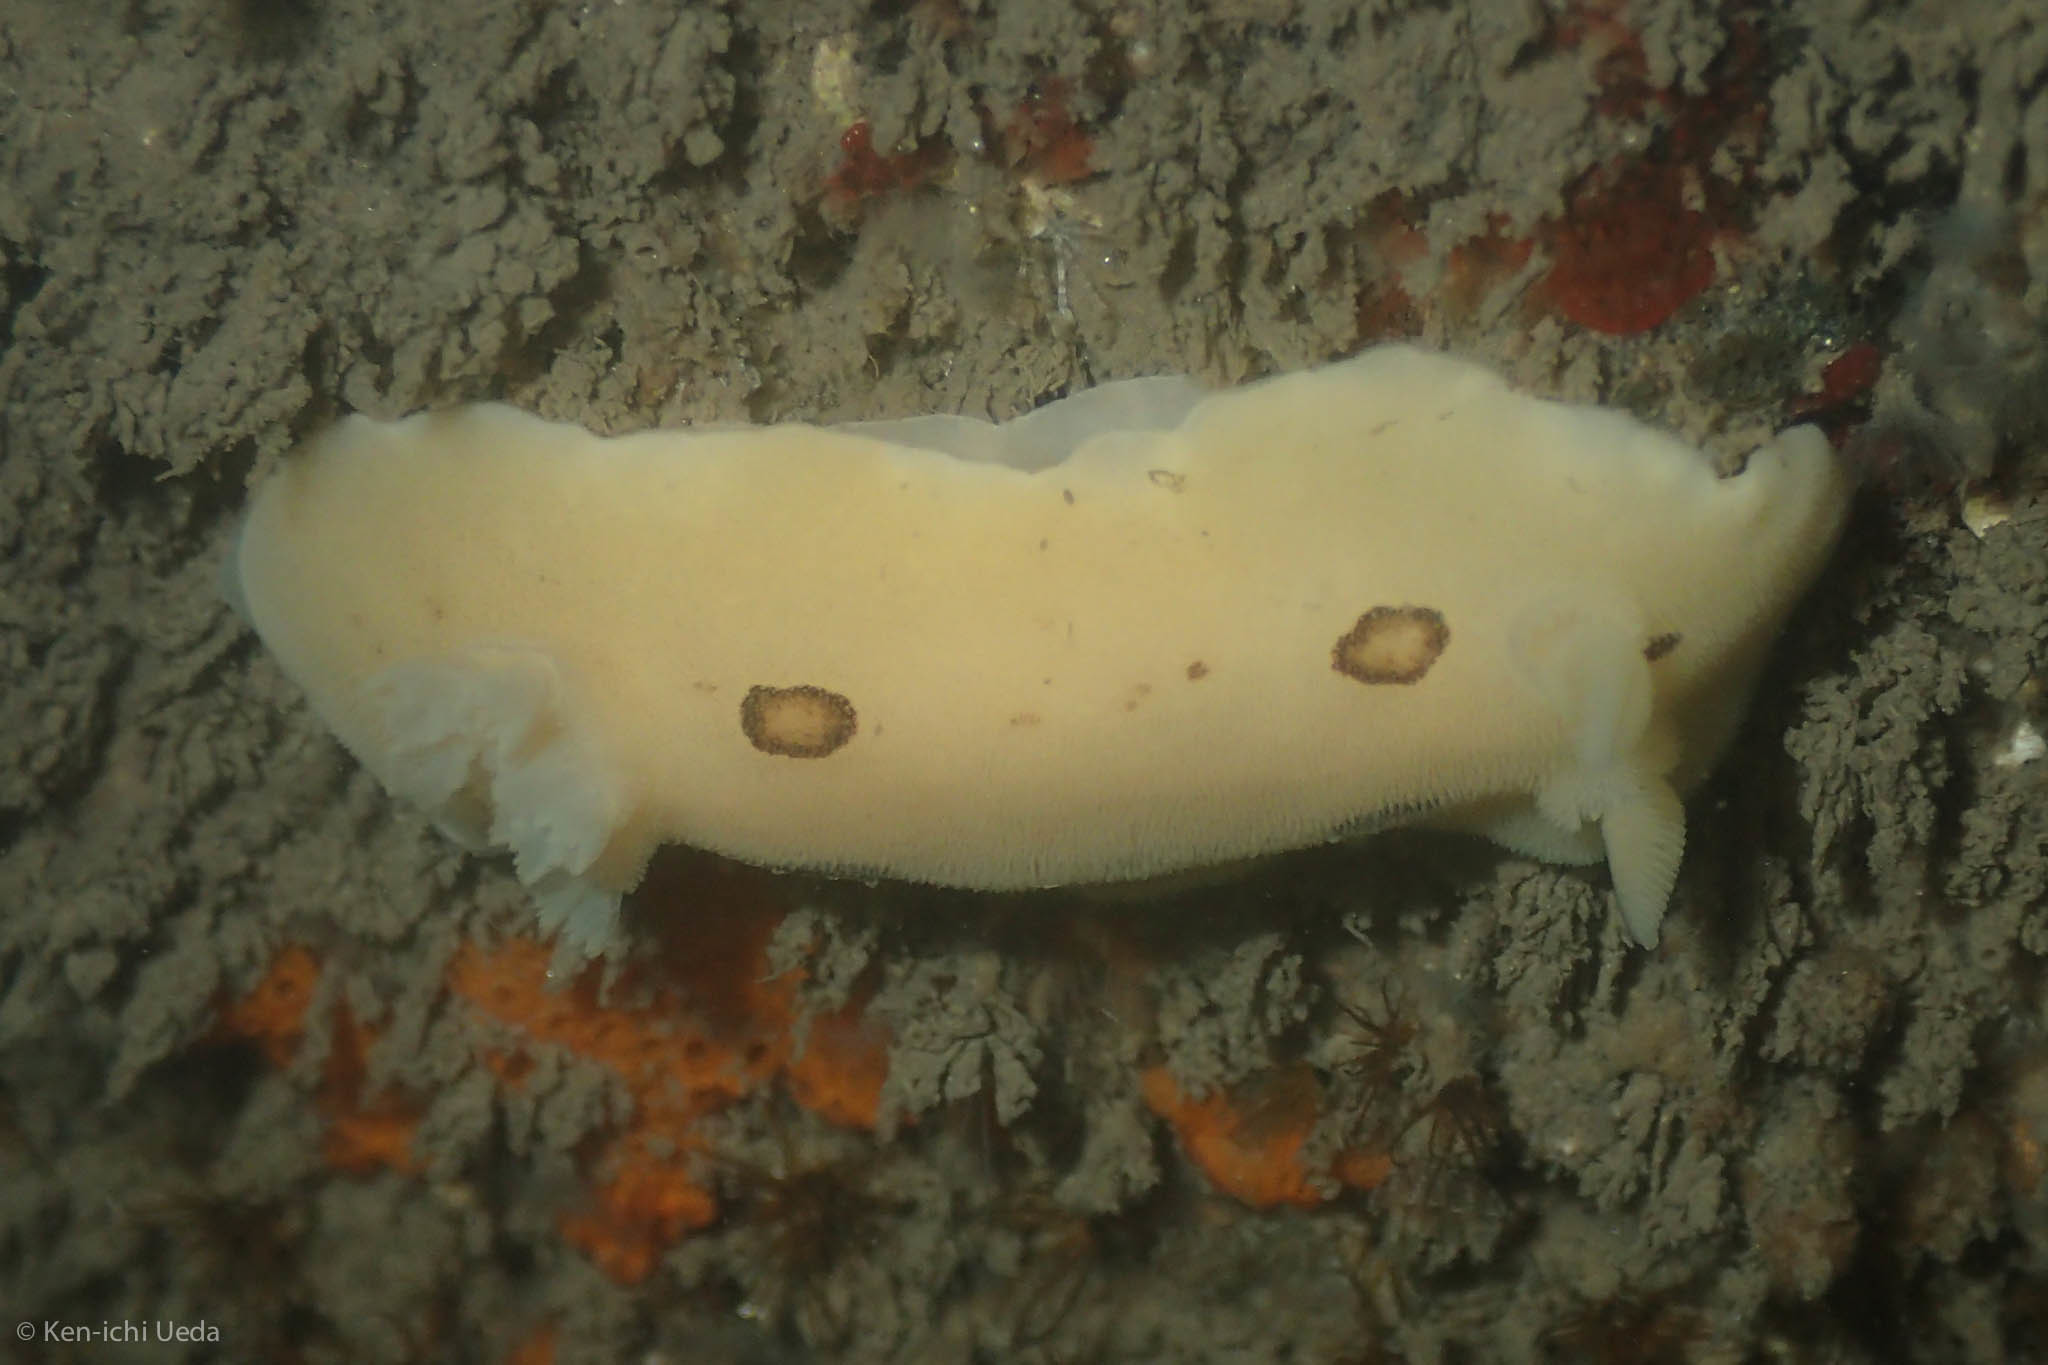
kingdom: Animalia
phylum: Mollusca
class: Gastropoda
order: Nudibranchia
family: Discodorididae
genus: Diaulula
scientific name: Diaulula sandiegensis
